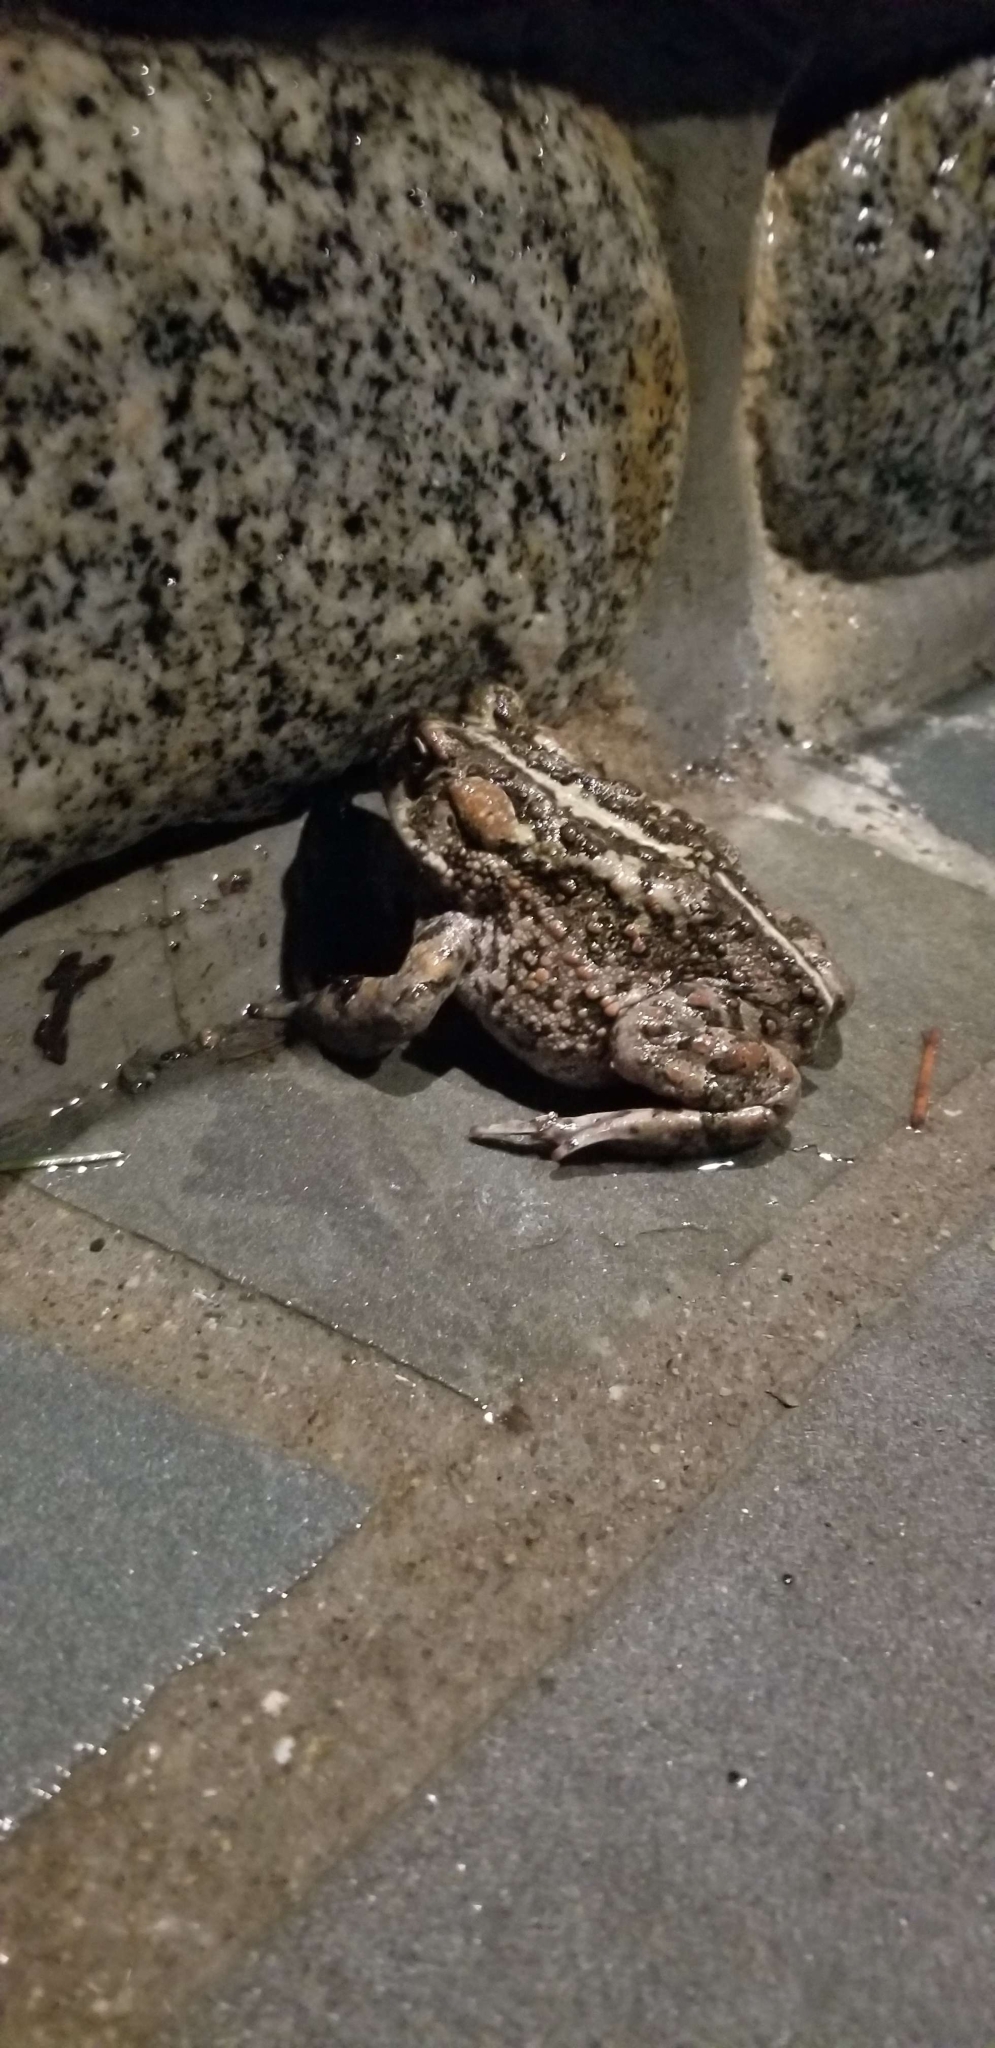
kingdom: Animalia
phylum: Chordata
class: Amphibia
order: Anura
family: Bufonidae
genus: Anaxyrus
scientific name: Anaxyrus boreas
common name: Western toad
